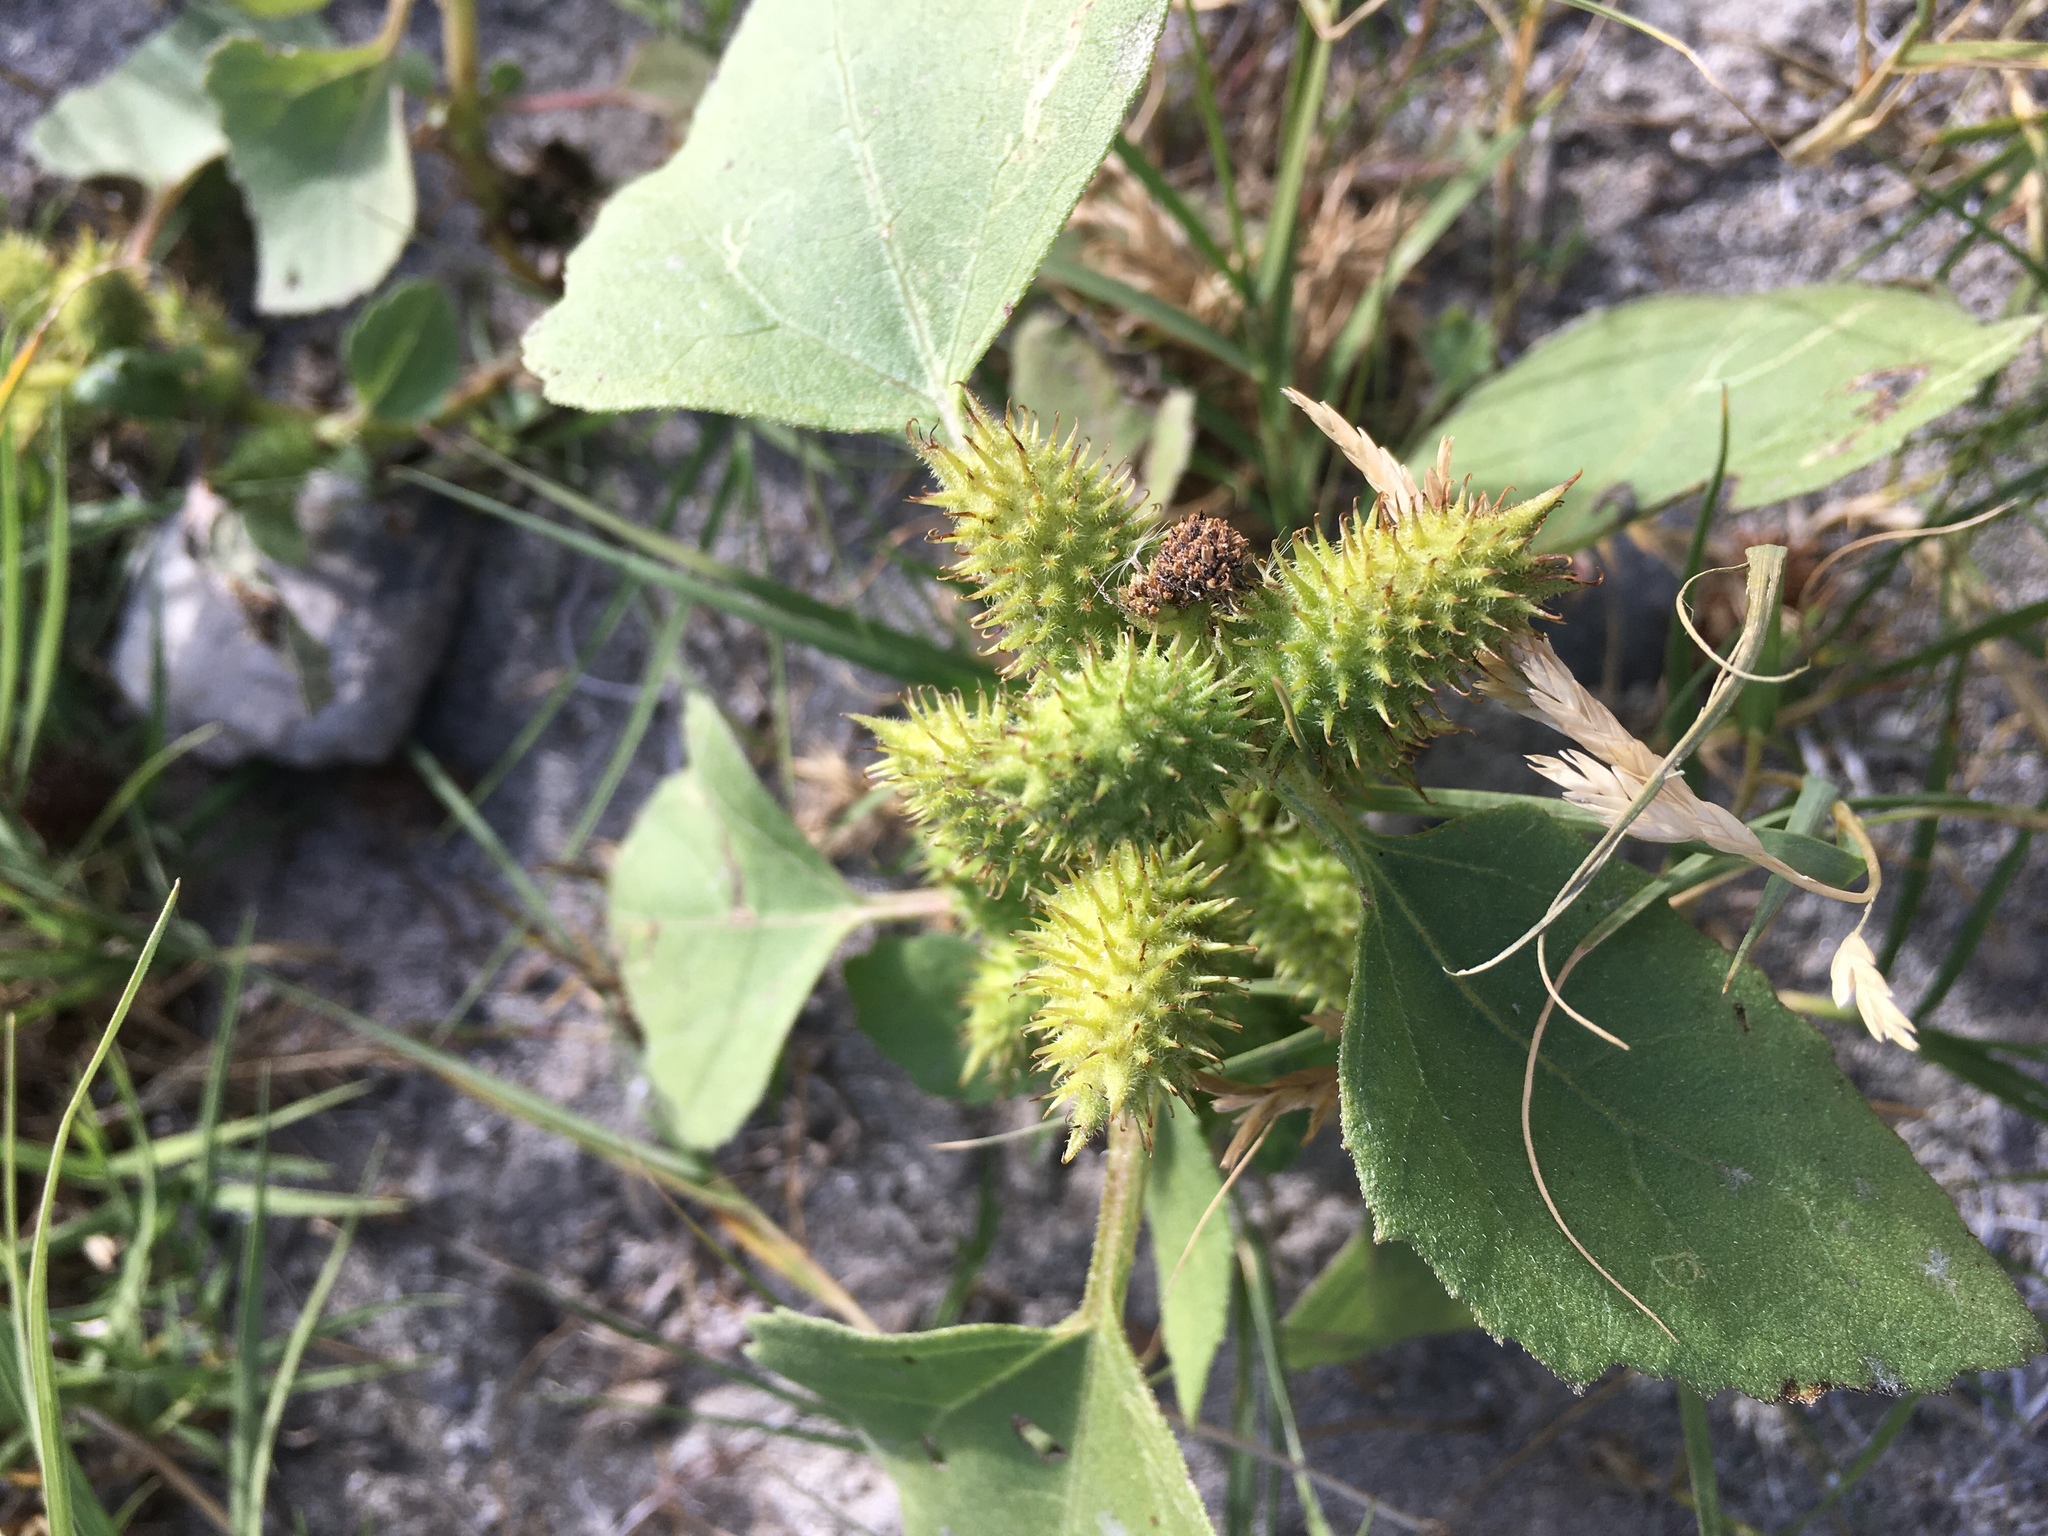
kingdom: Plantae
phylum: Tracheophyta
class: Magnoliopsida
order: Asterales
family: Asteraceae
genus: Xanthium
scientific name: Xanthium strumarium
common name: Rough cocklebur
